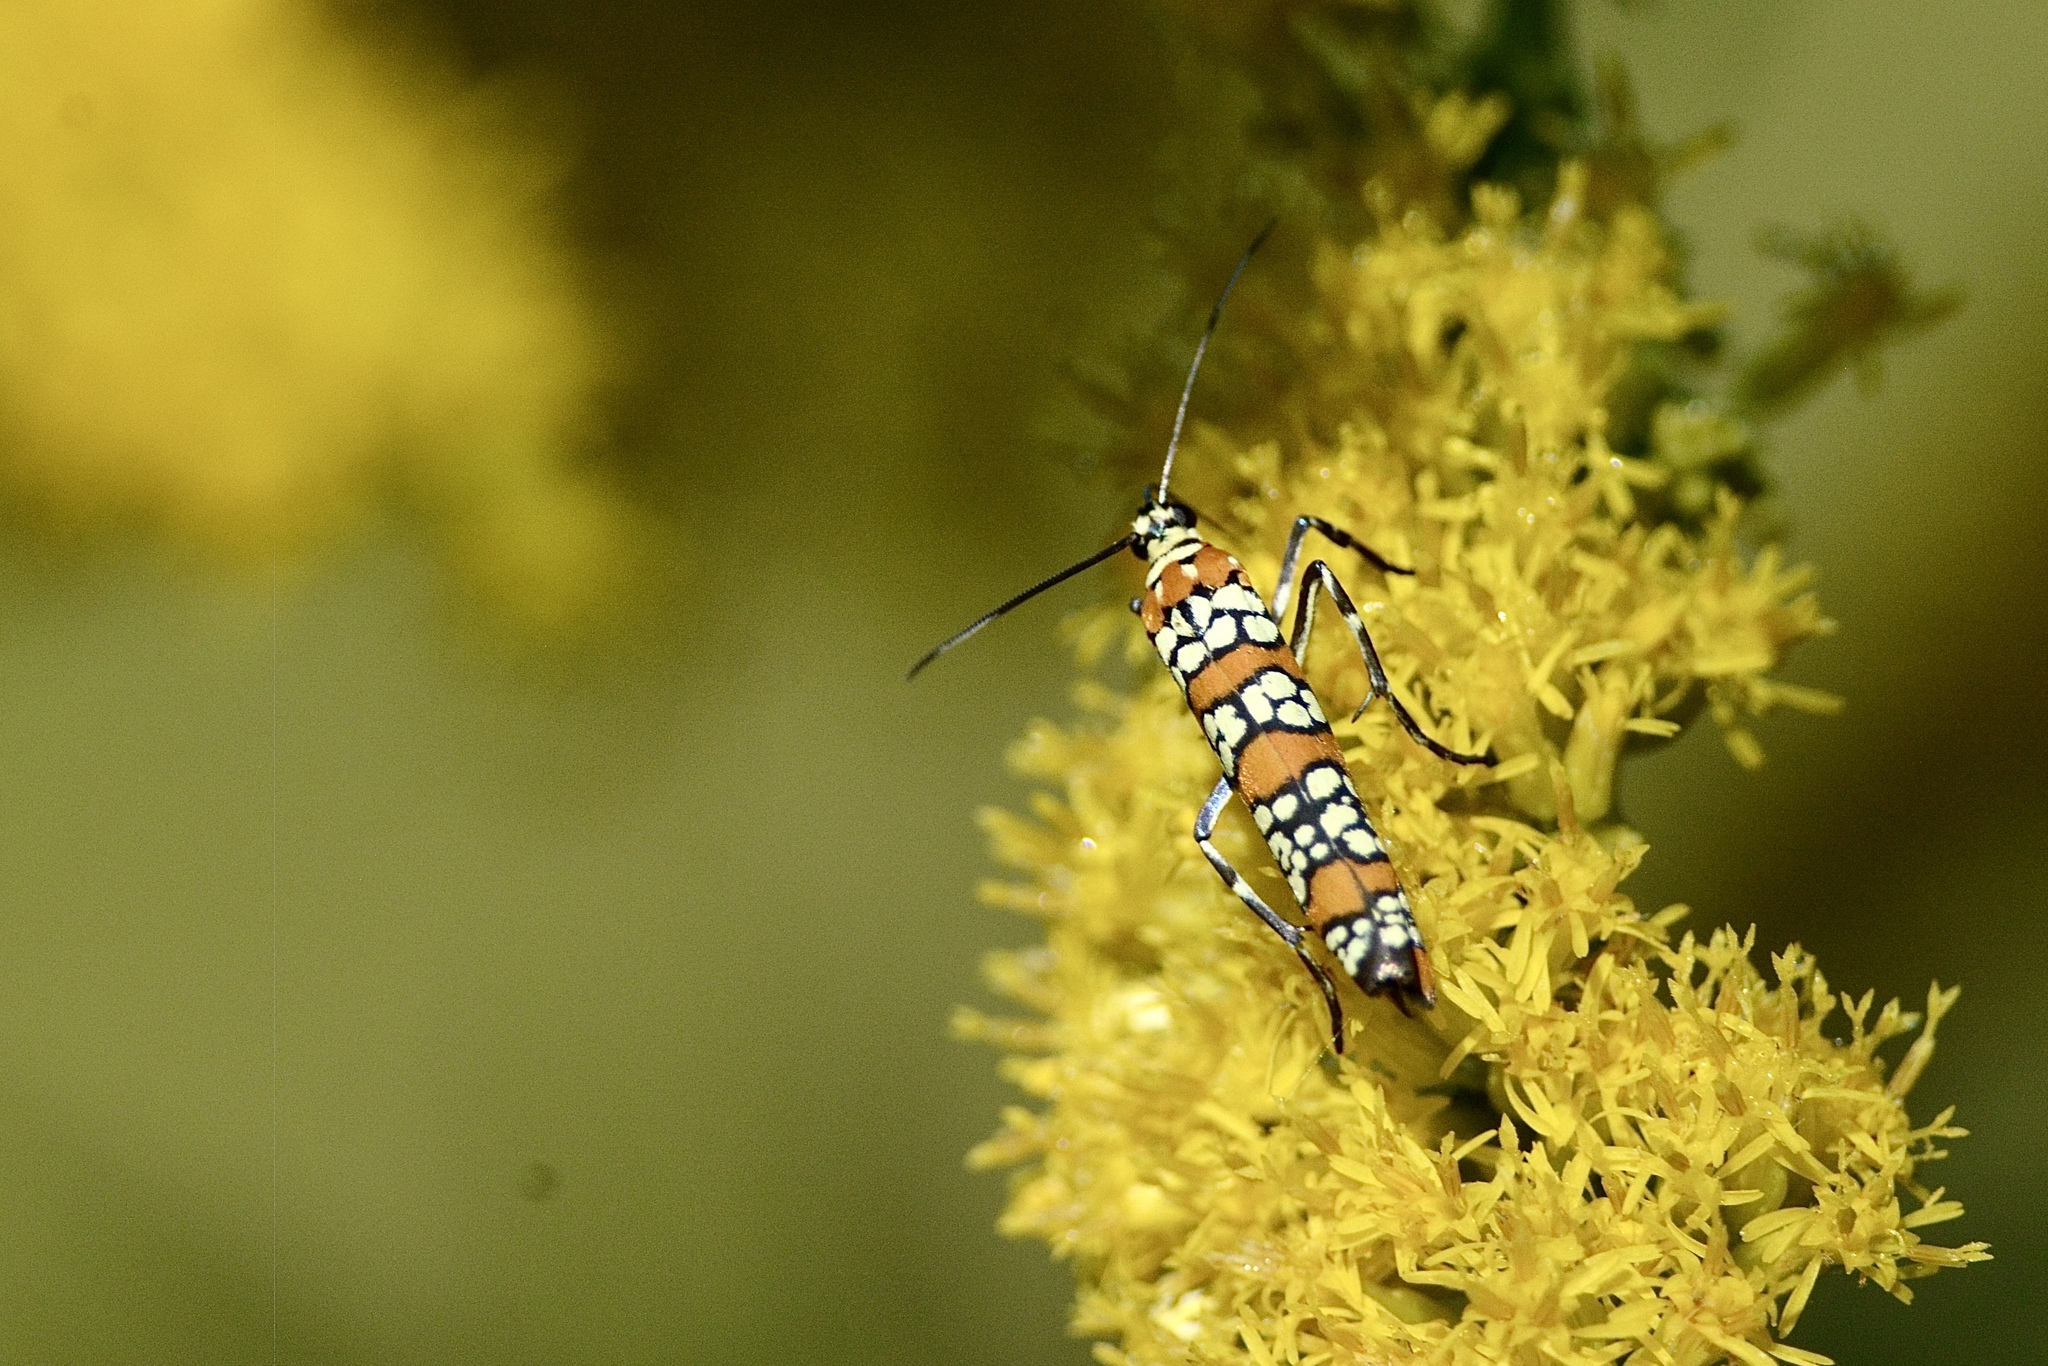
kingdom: Animalia
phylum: Arthropoda
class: Insecta
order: Lepidoptera
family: Attevidae
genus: Atteva
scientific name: Atteva punctella
